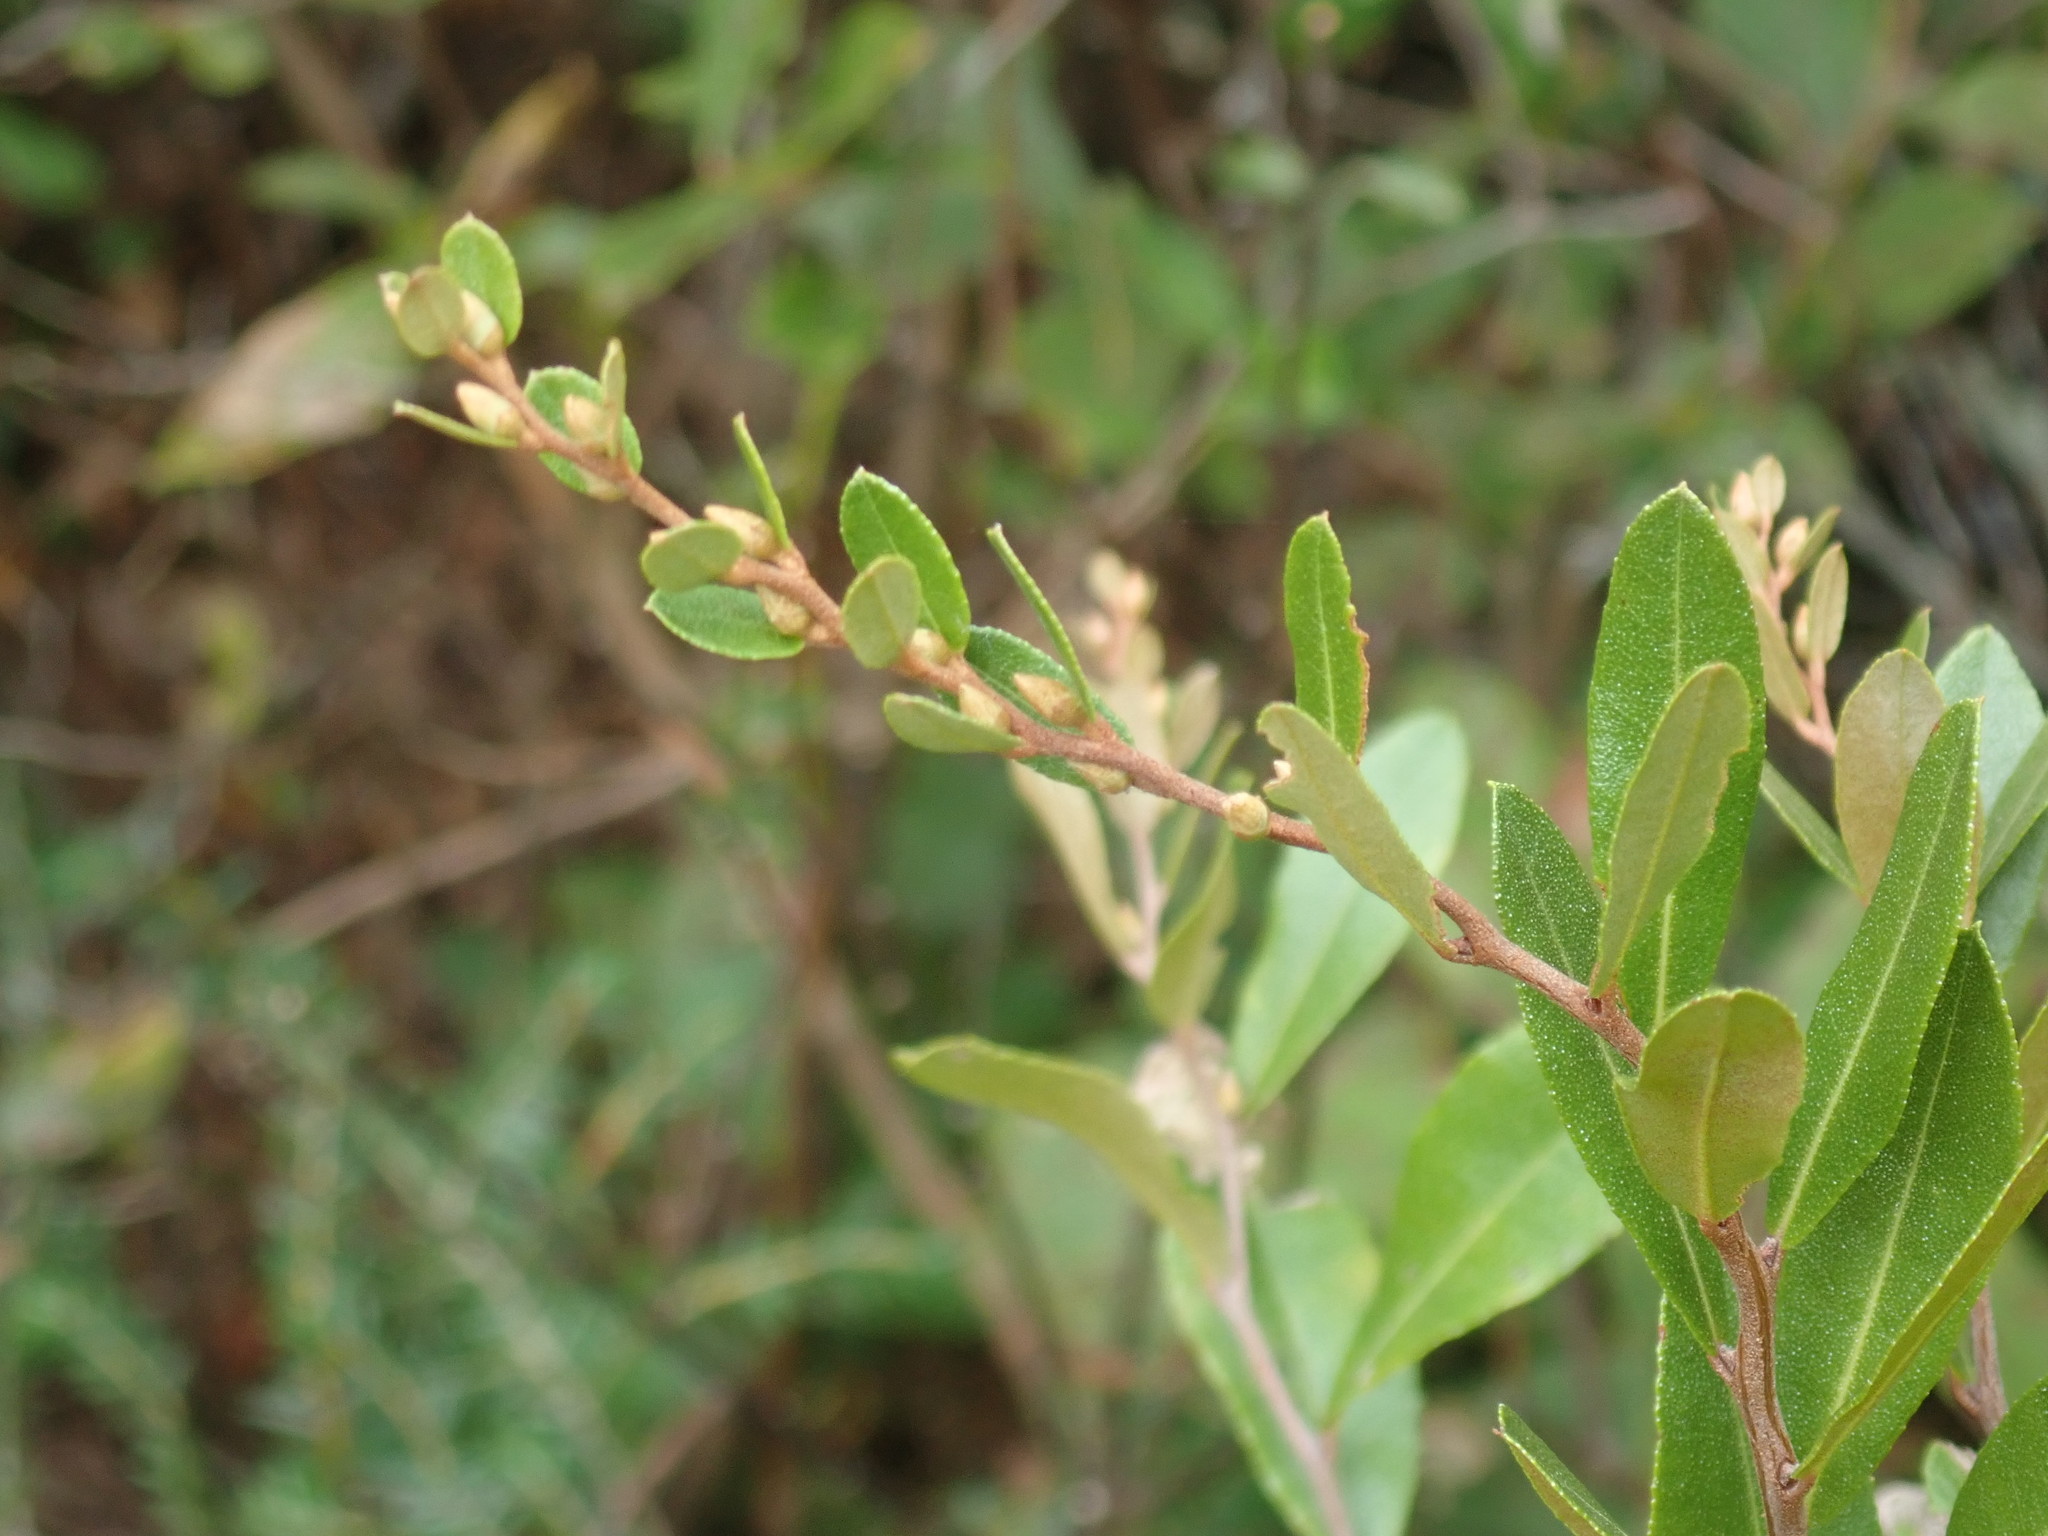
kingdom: Plantae
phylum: Tracheophyta
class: Magnoliopsida
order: Ericales
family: Ericaceae
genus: Chamaedaphne
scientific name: Chamaedaphne calyculata
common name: Leatherleaf
